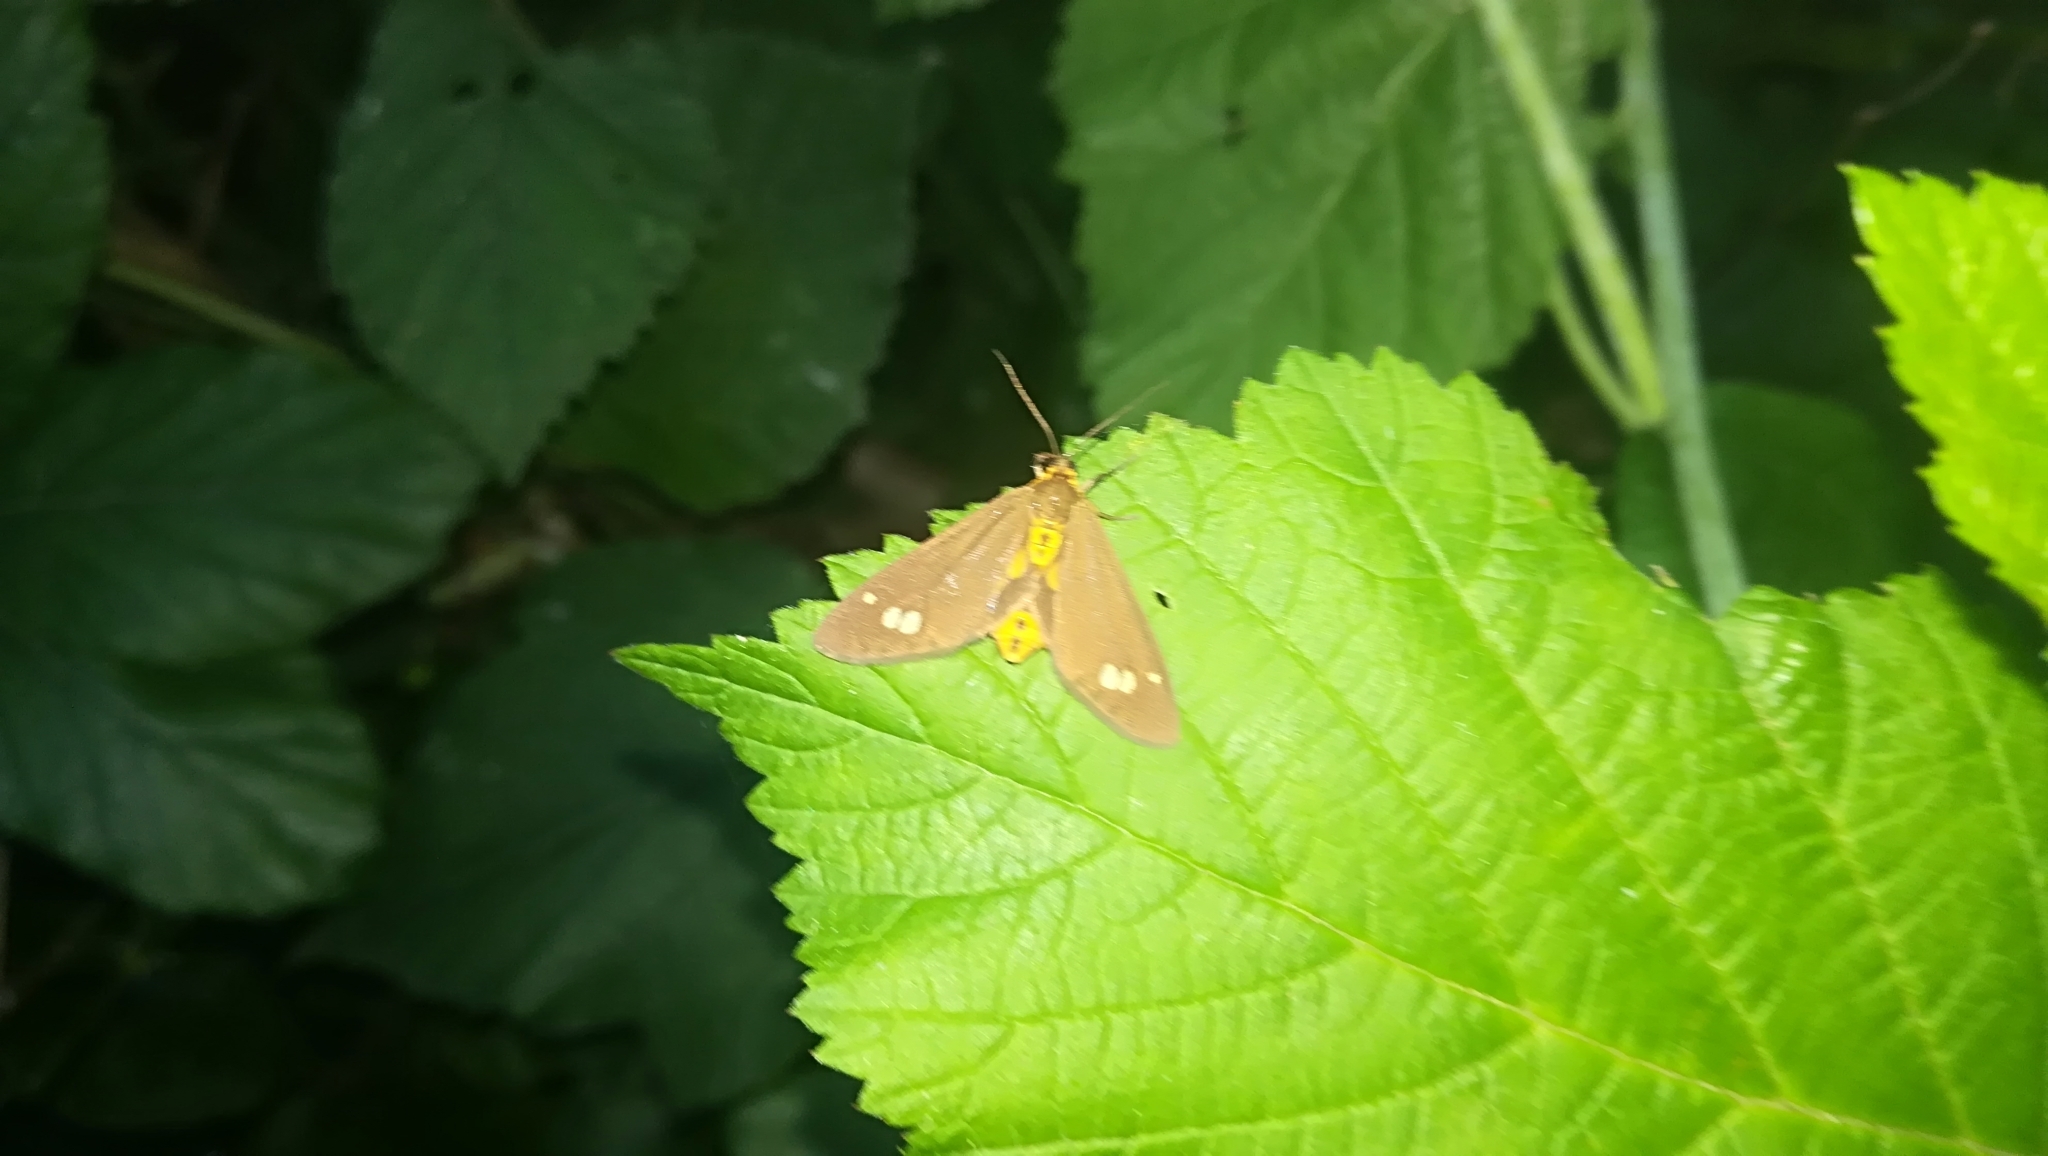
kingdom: Animalia
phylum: Arthropoda
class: Insecta
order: Lepidoptera
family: Erebidae
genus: Dysauxes
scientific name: Dysauxes ancilla
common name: The handmaid
